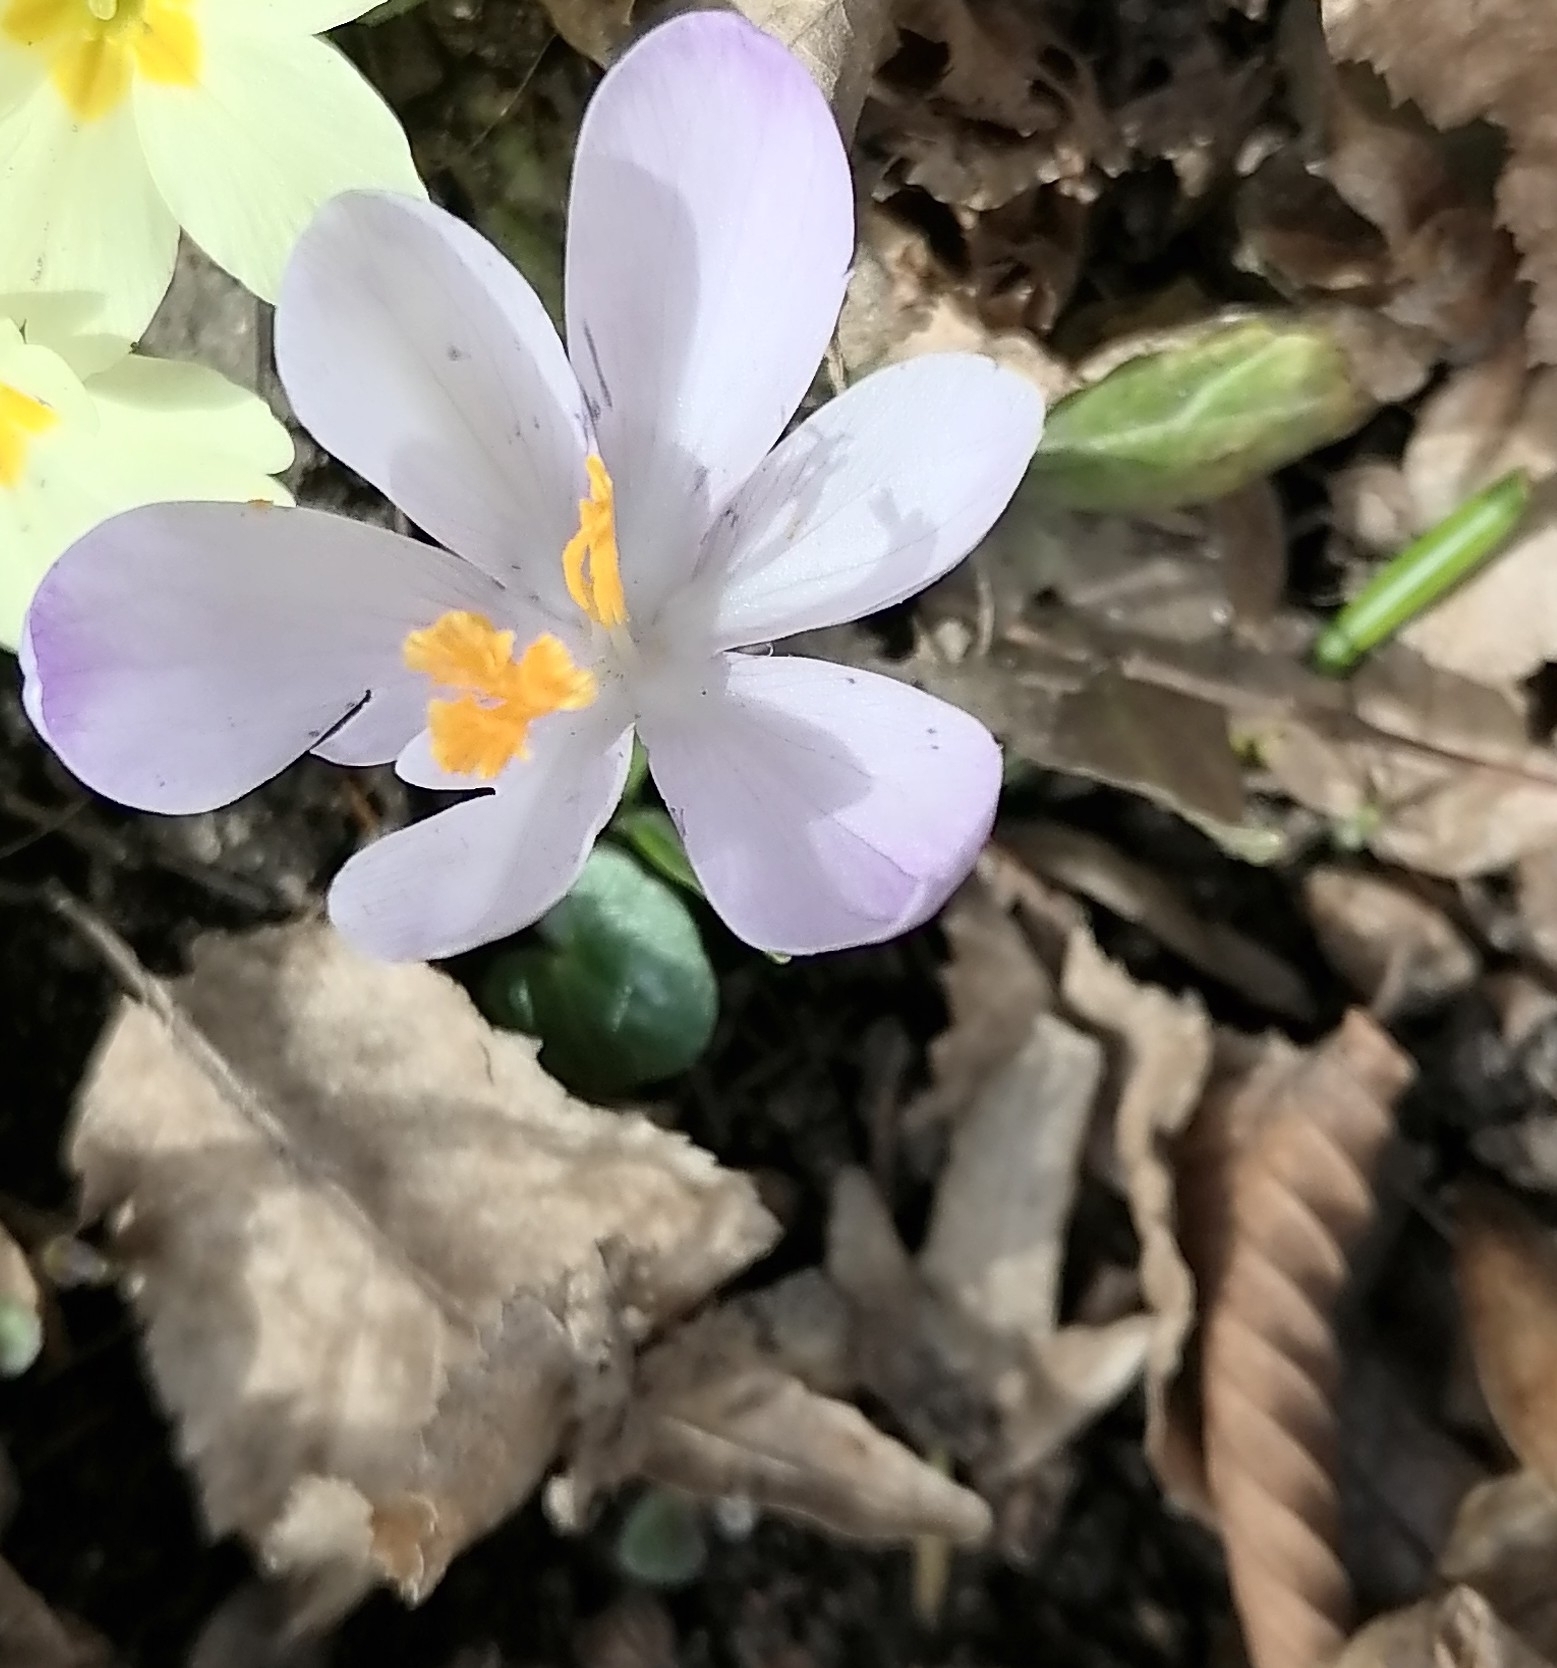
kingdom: Plantae
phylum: Tracheophyta
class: Liliopsida
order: Asparagales
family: Iridaceae
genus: Crocus
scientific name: Crocus heuffelianus
